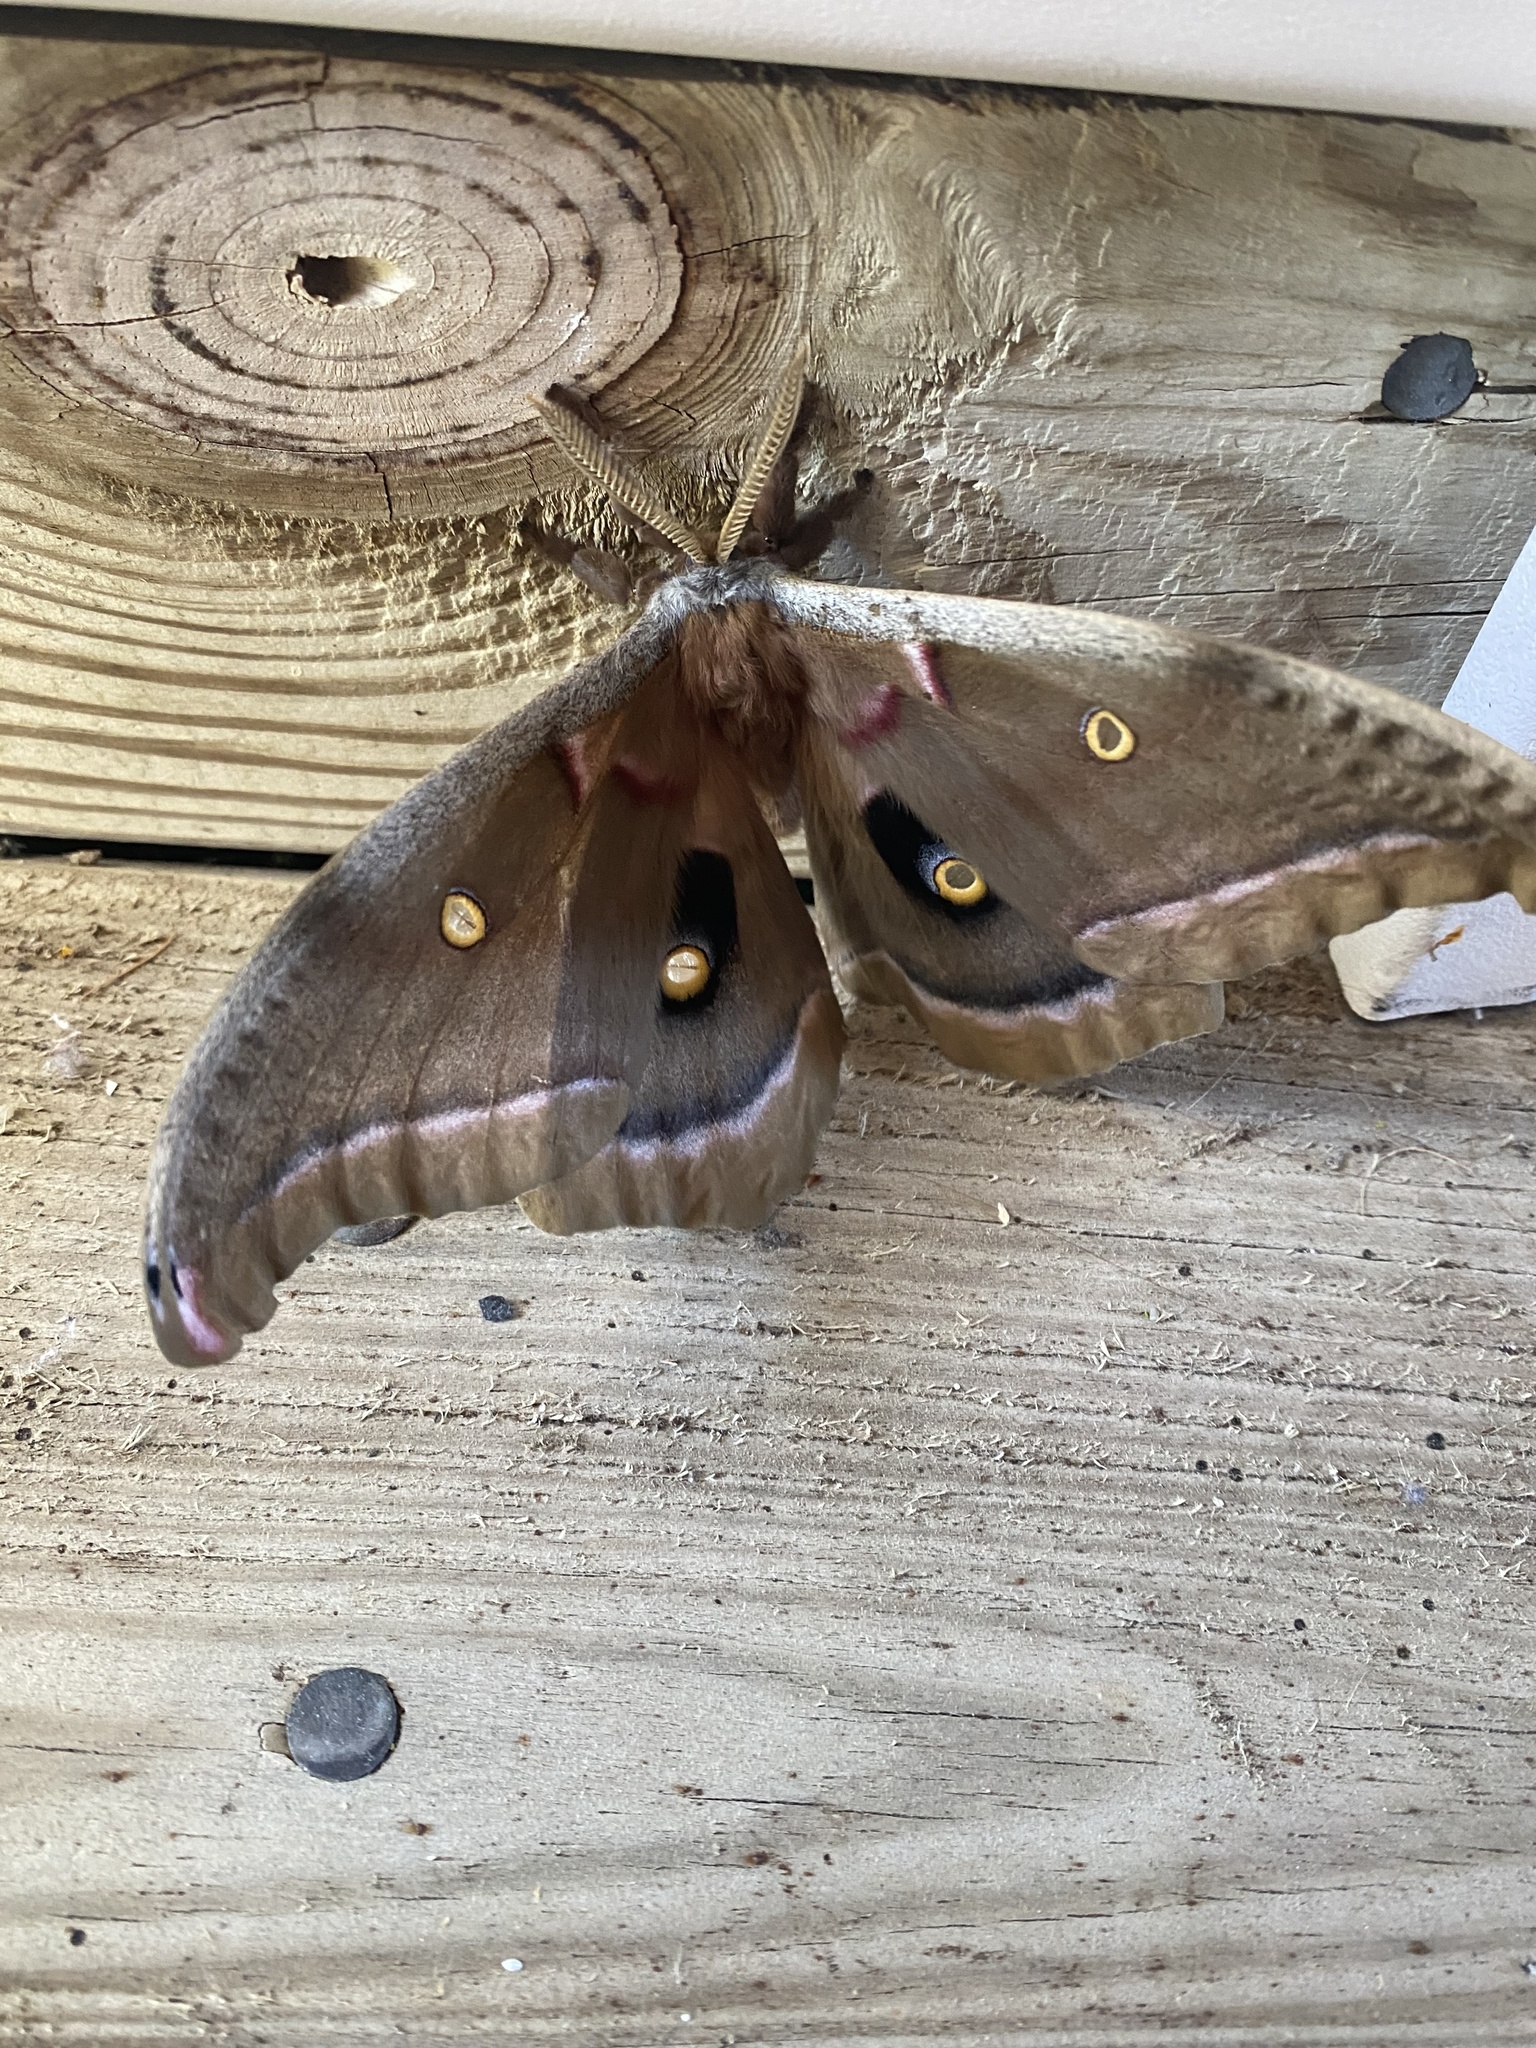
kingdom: Animalia
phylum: Arthropoda
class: Insecta
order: Lepidoptera
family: Saturniidae
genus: Antheraea
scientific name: Antheraea polyphemus
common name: Polyphemus moth
